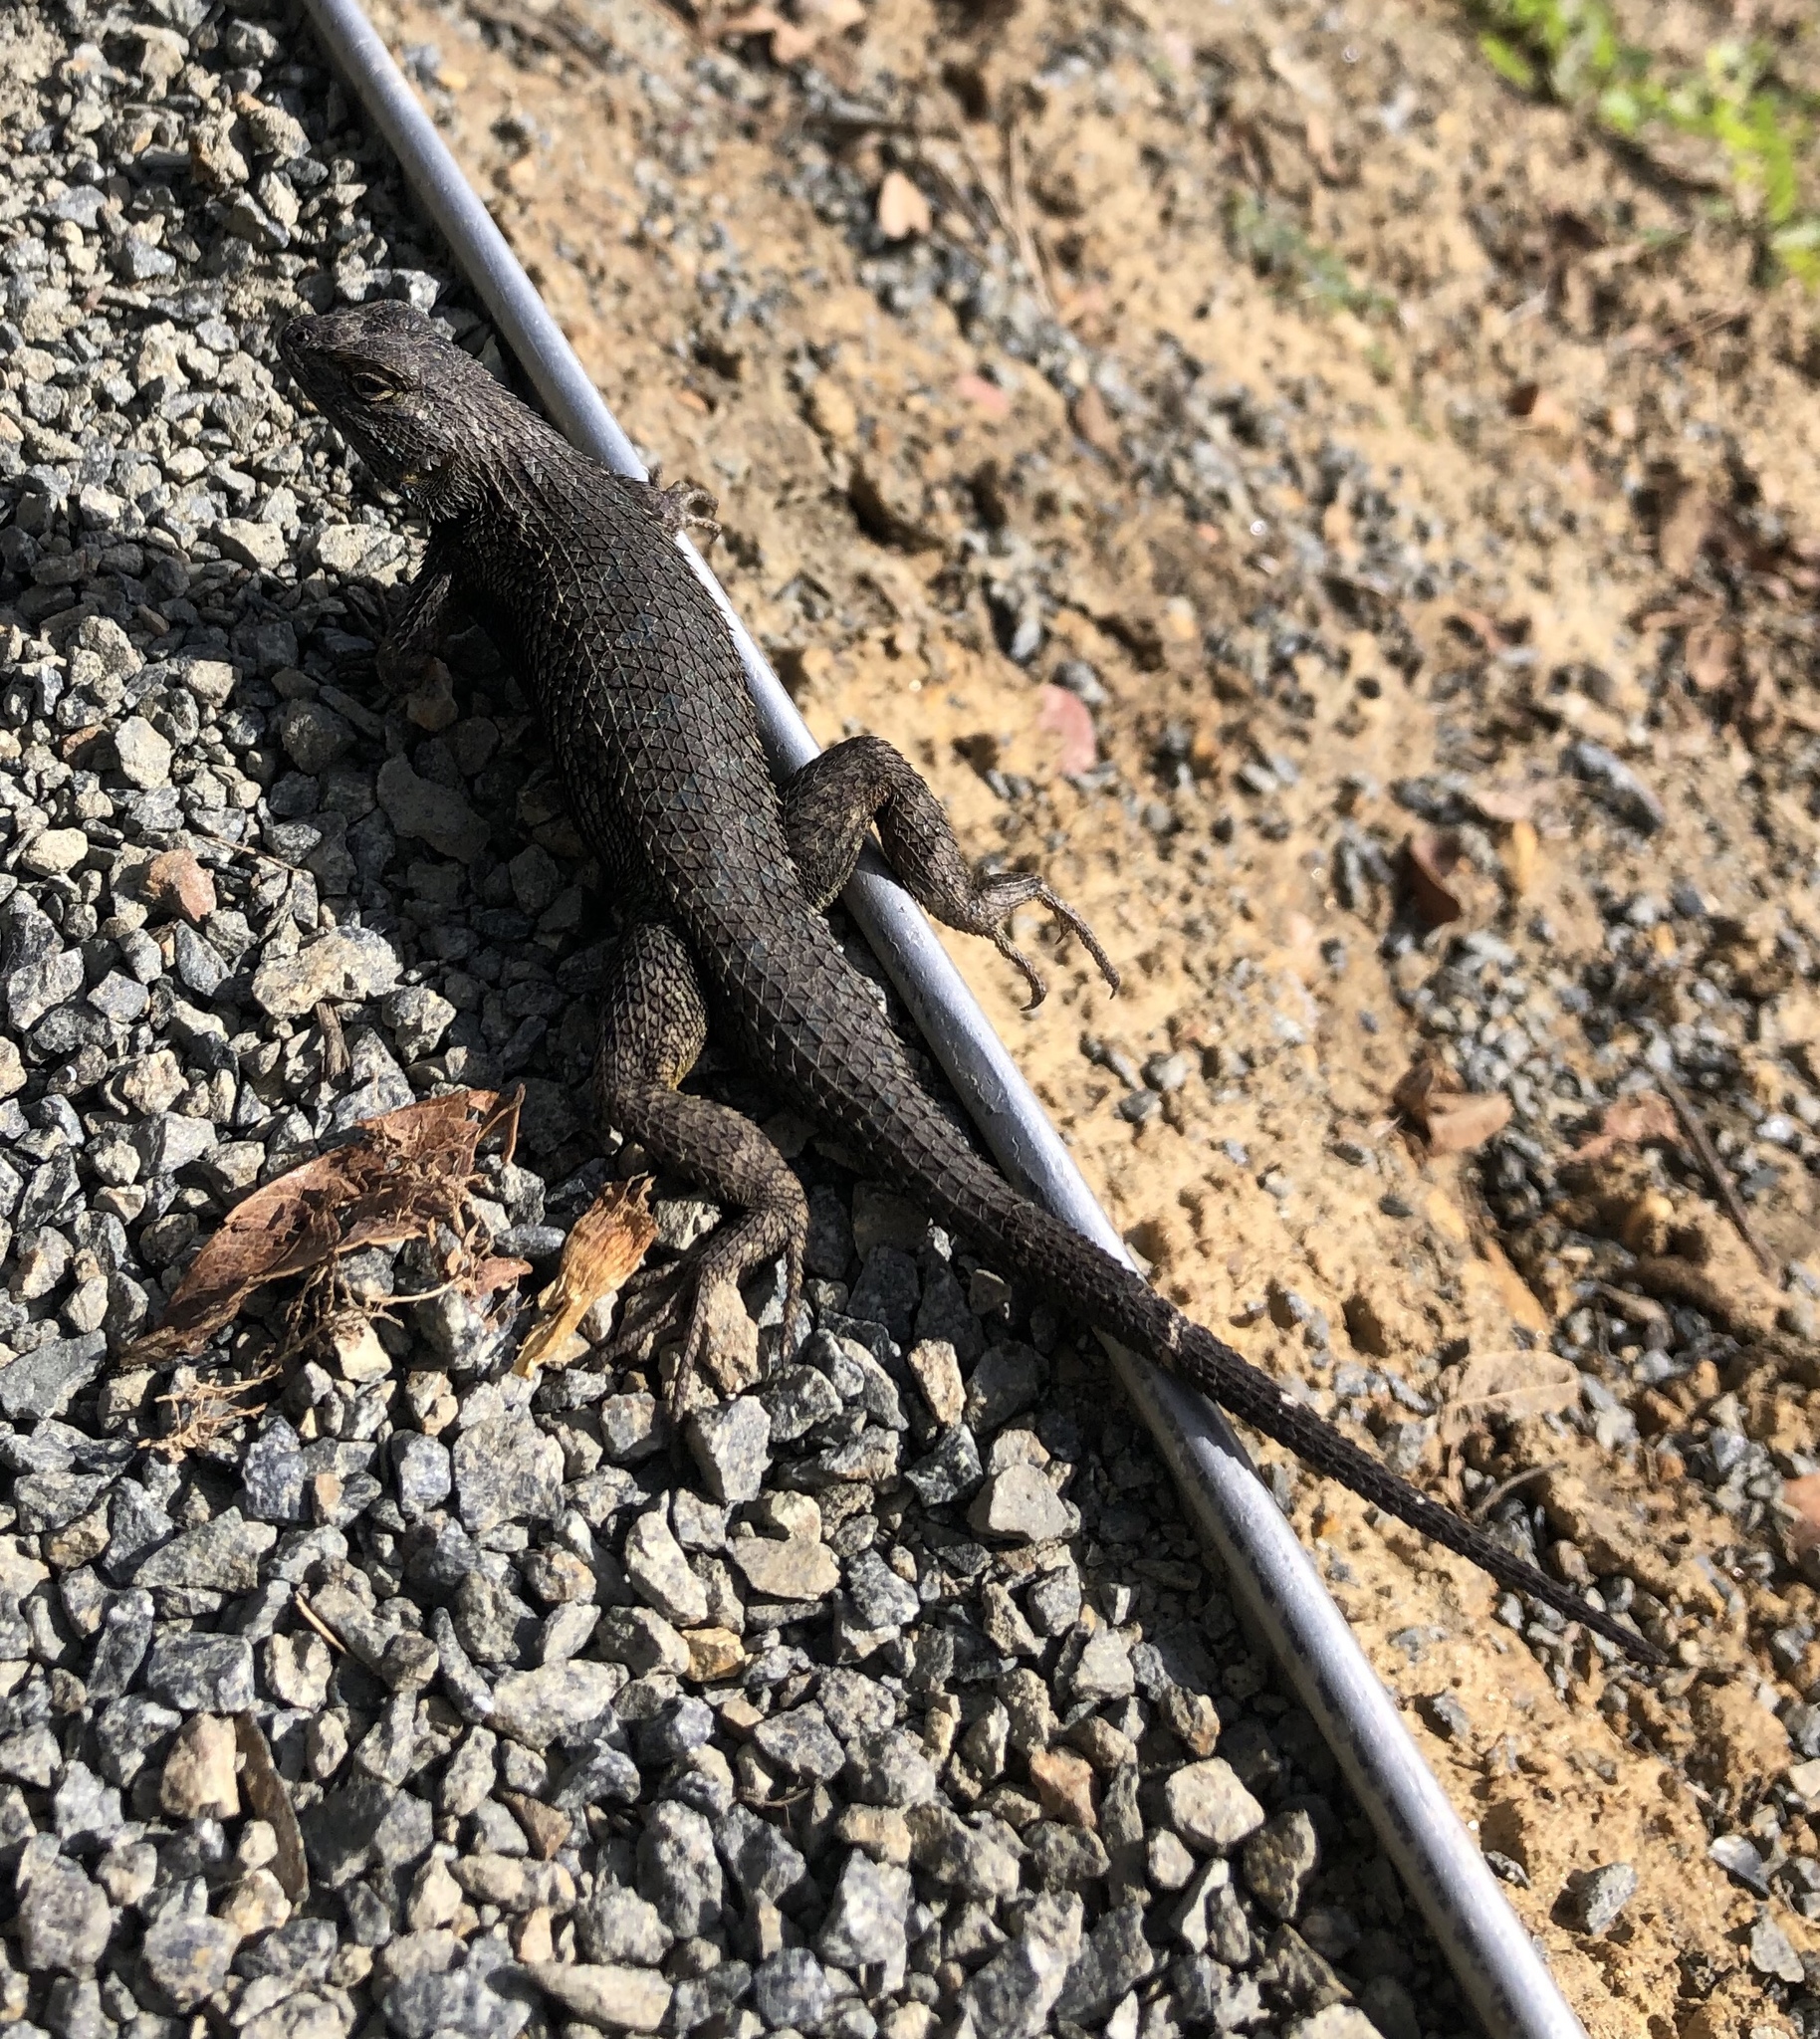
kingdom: Animalia
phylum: Chordata
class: Squamata
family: Phrynosomatidae
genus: Sceloporus
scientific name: Sceloporus occidentalis
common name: Western fence lizard
